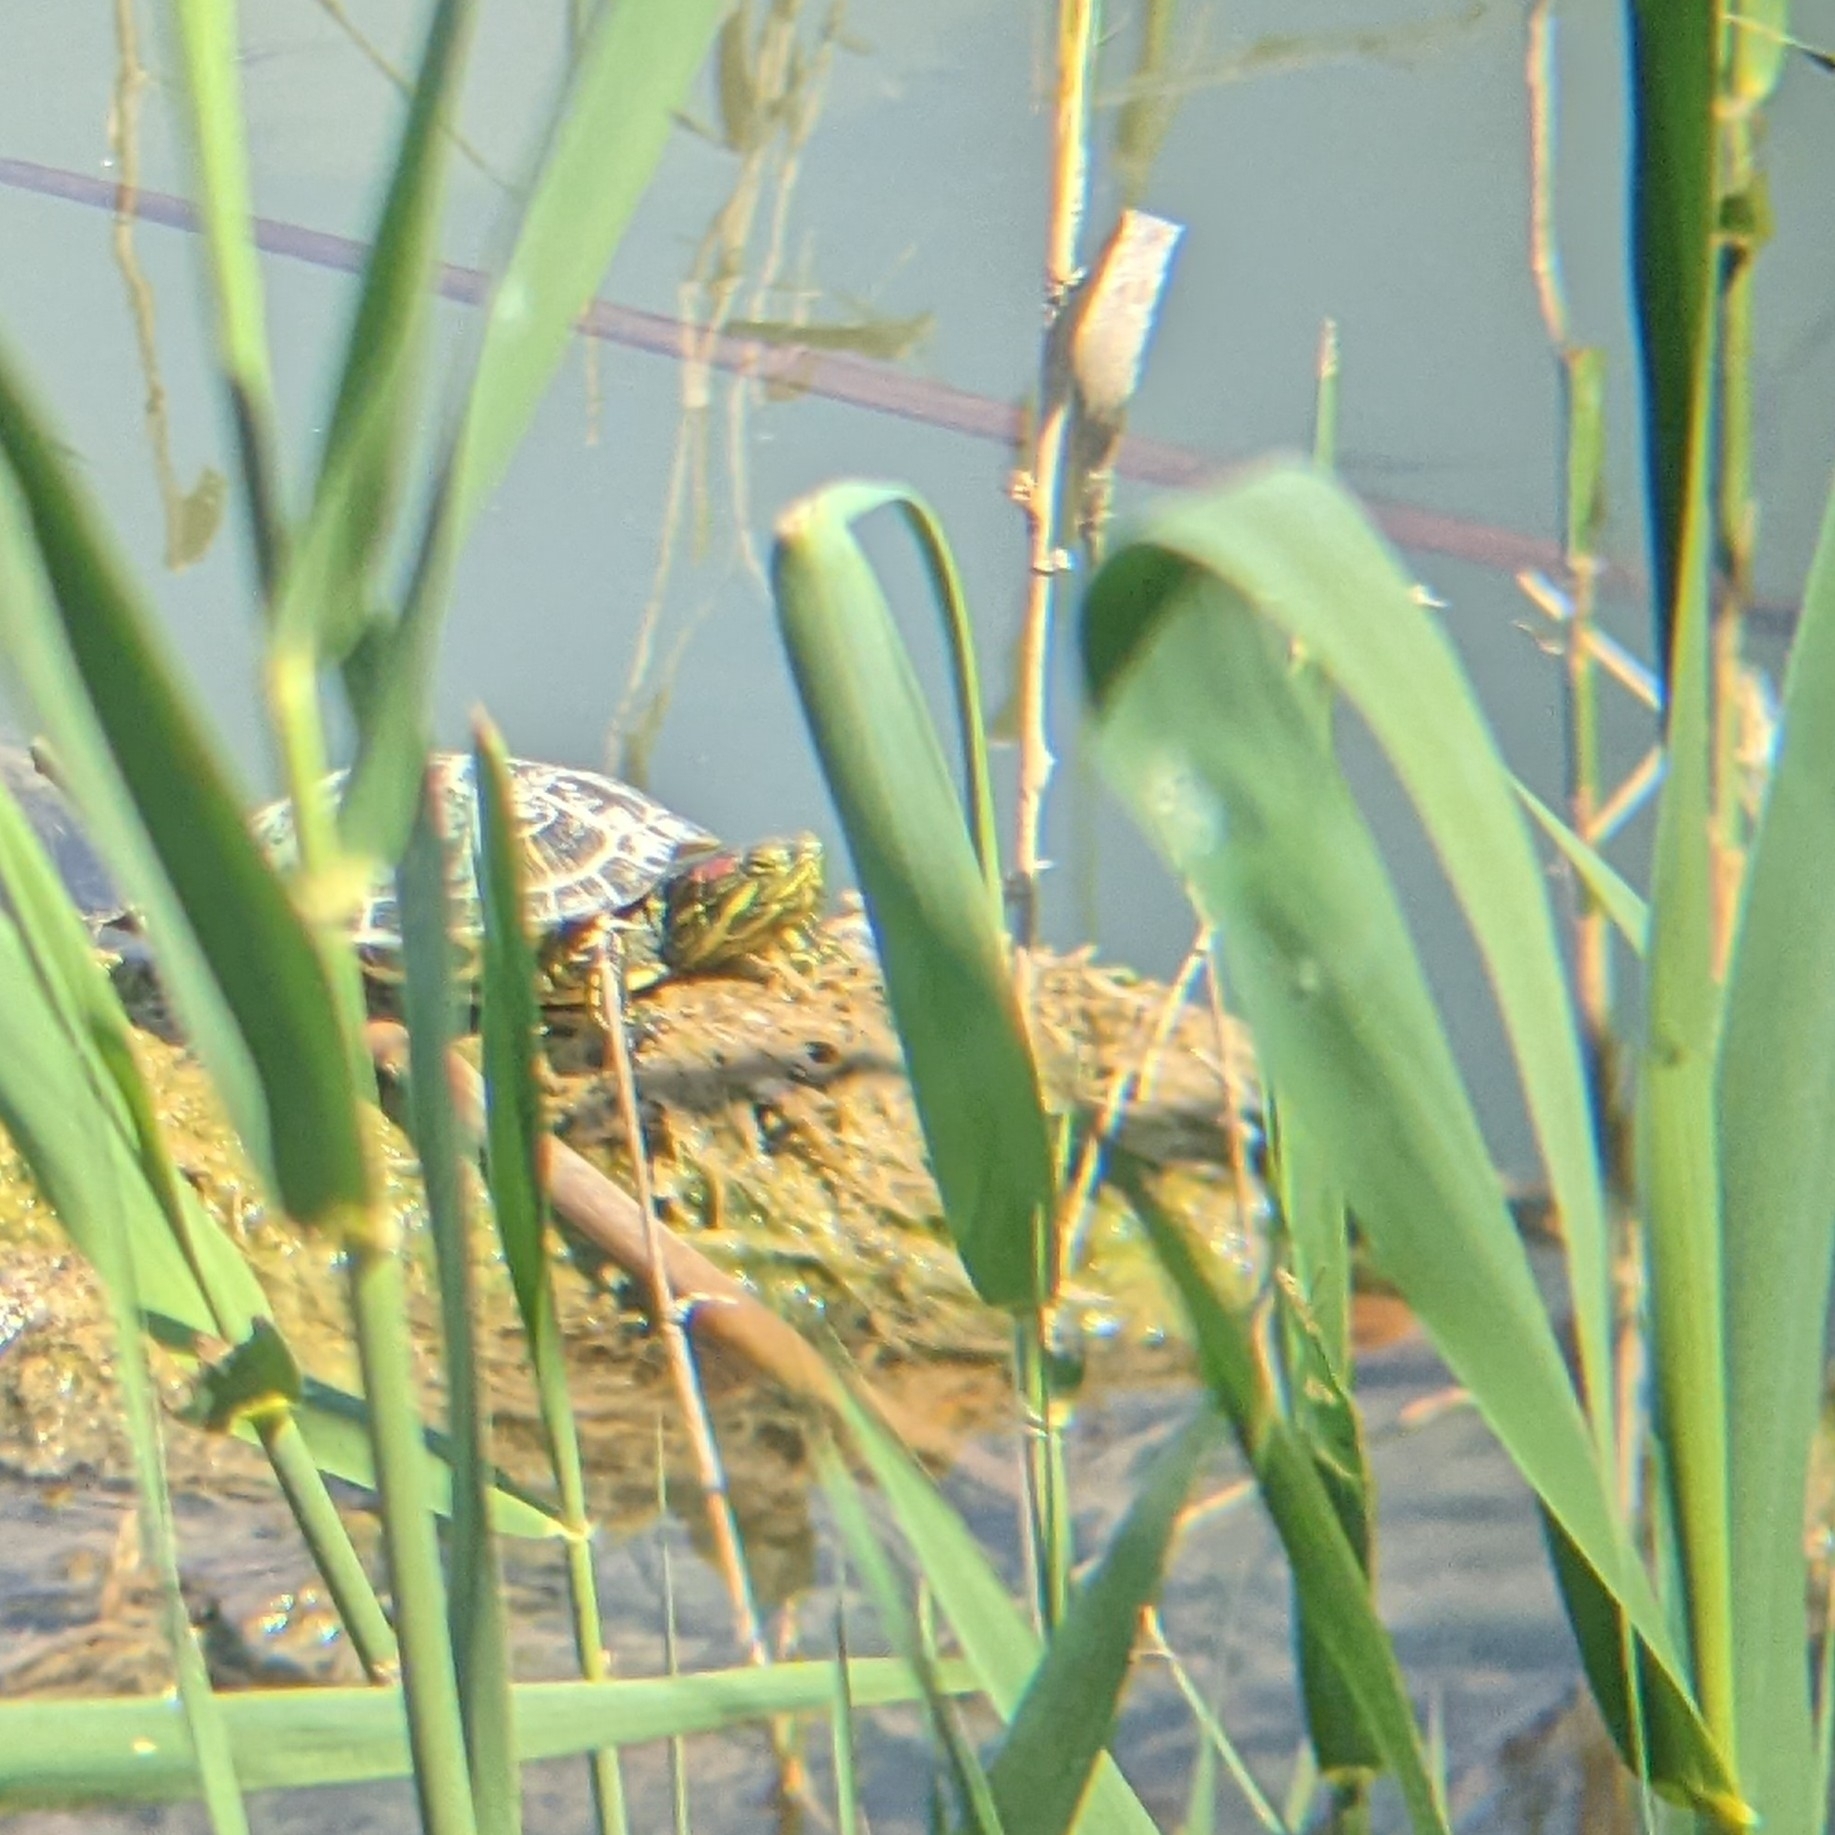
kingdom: Animalia
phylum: Chordata
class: Testudines
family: Emydidae
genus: Trachemys
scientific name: Trachemys scripta
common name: Slider
